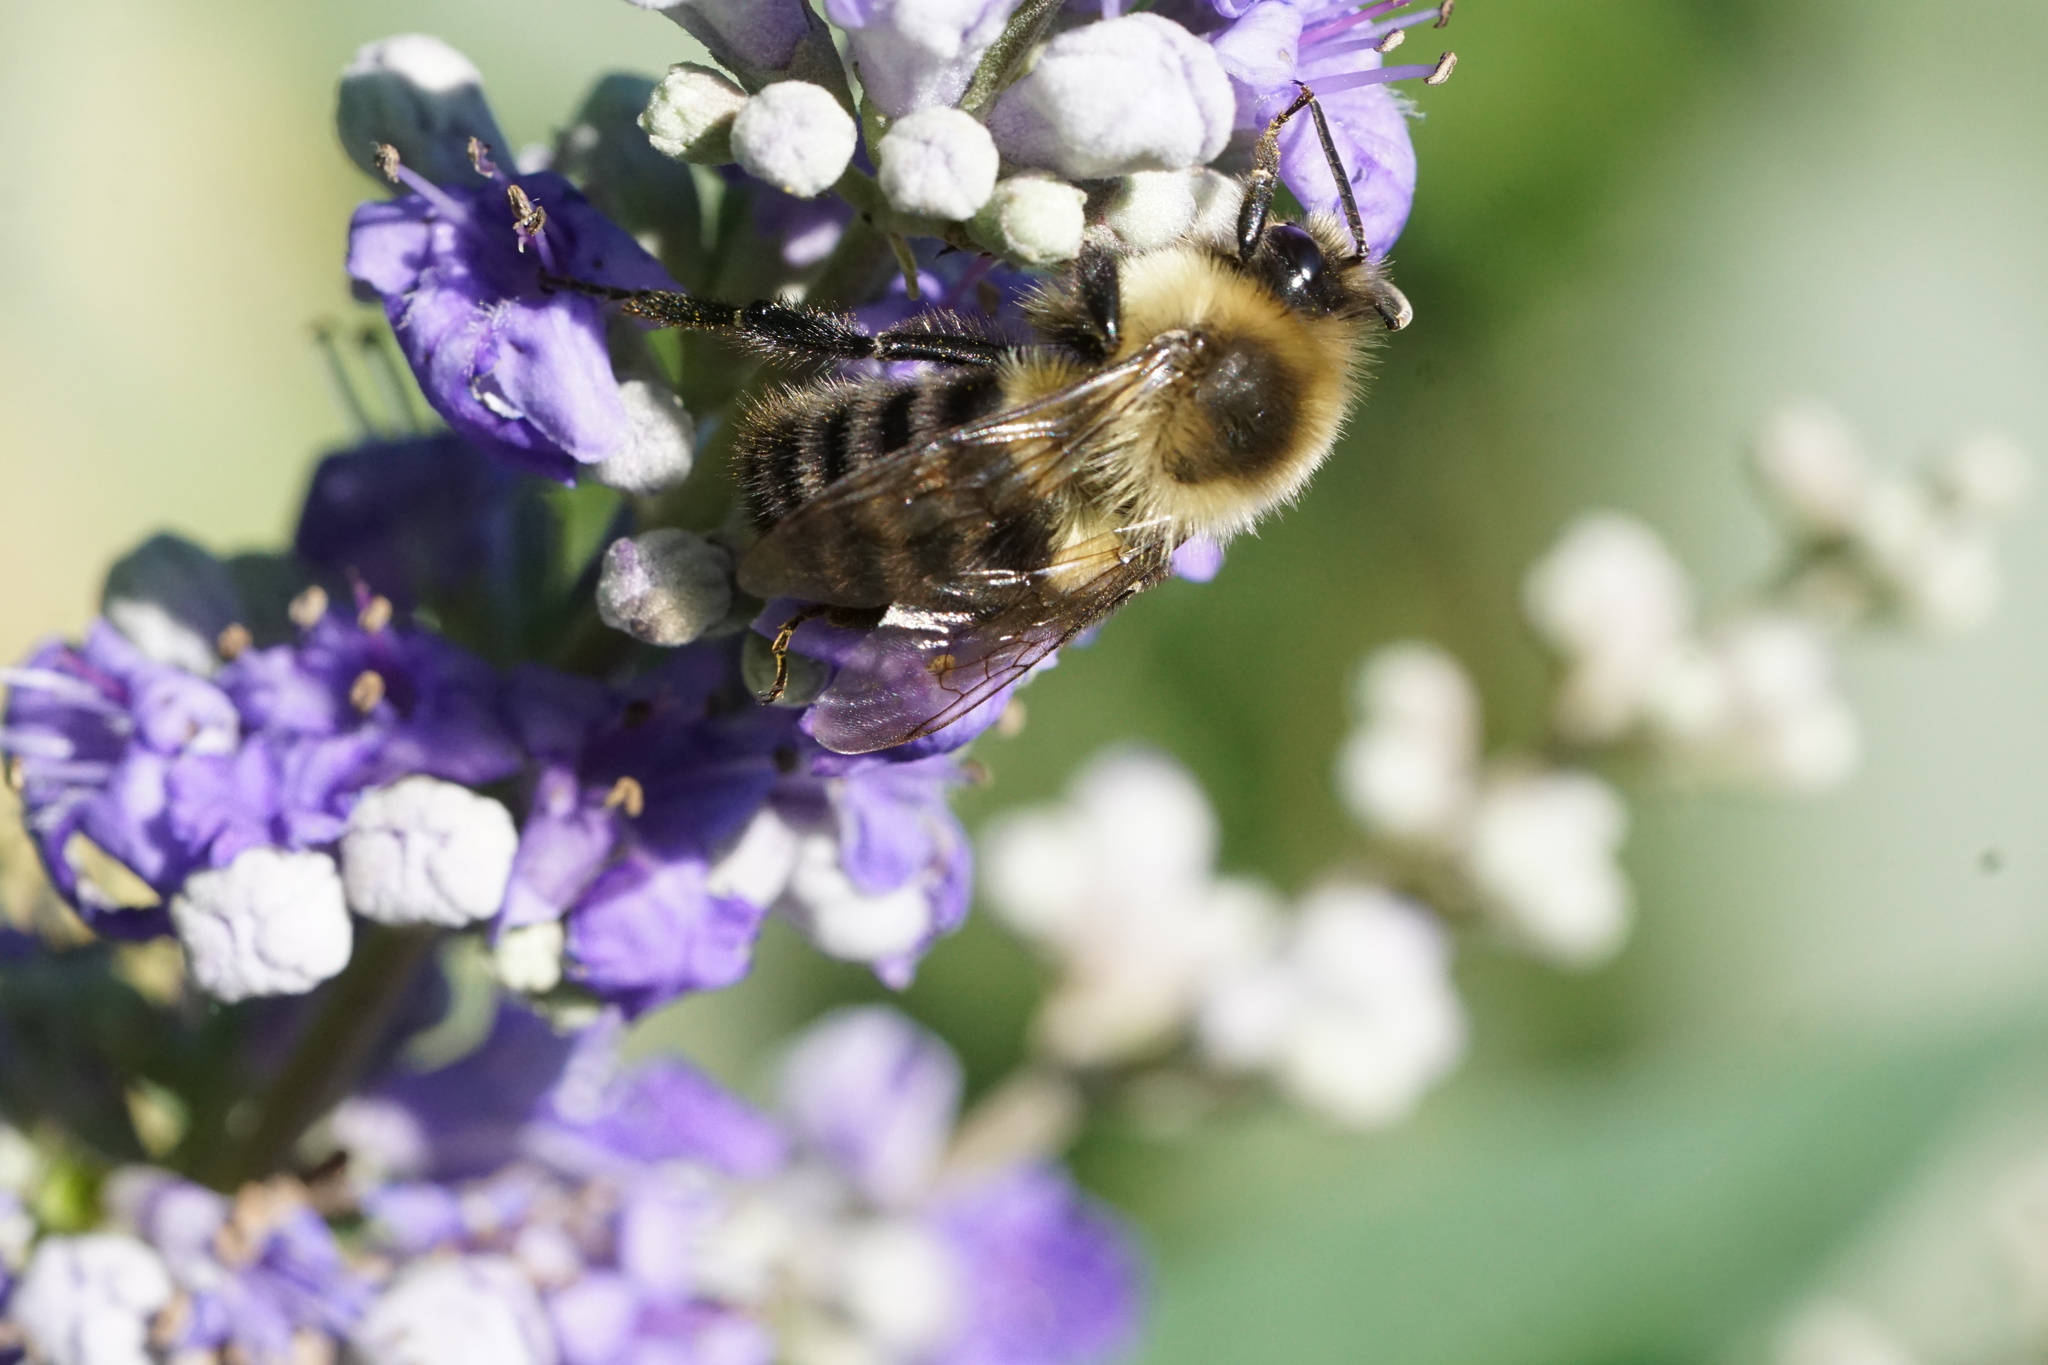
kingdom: Animalia
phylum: Arthropoda
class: Insecta
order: Hymenoptera
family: Apidae
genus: Bombus
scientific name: Bombus impatiens
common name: Common eastern bumble bee
